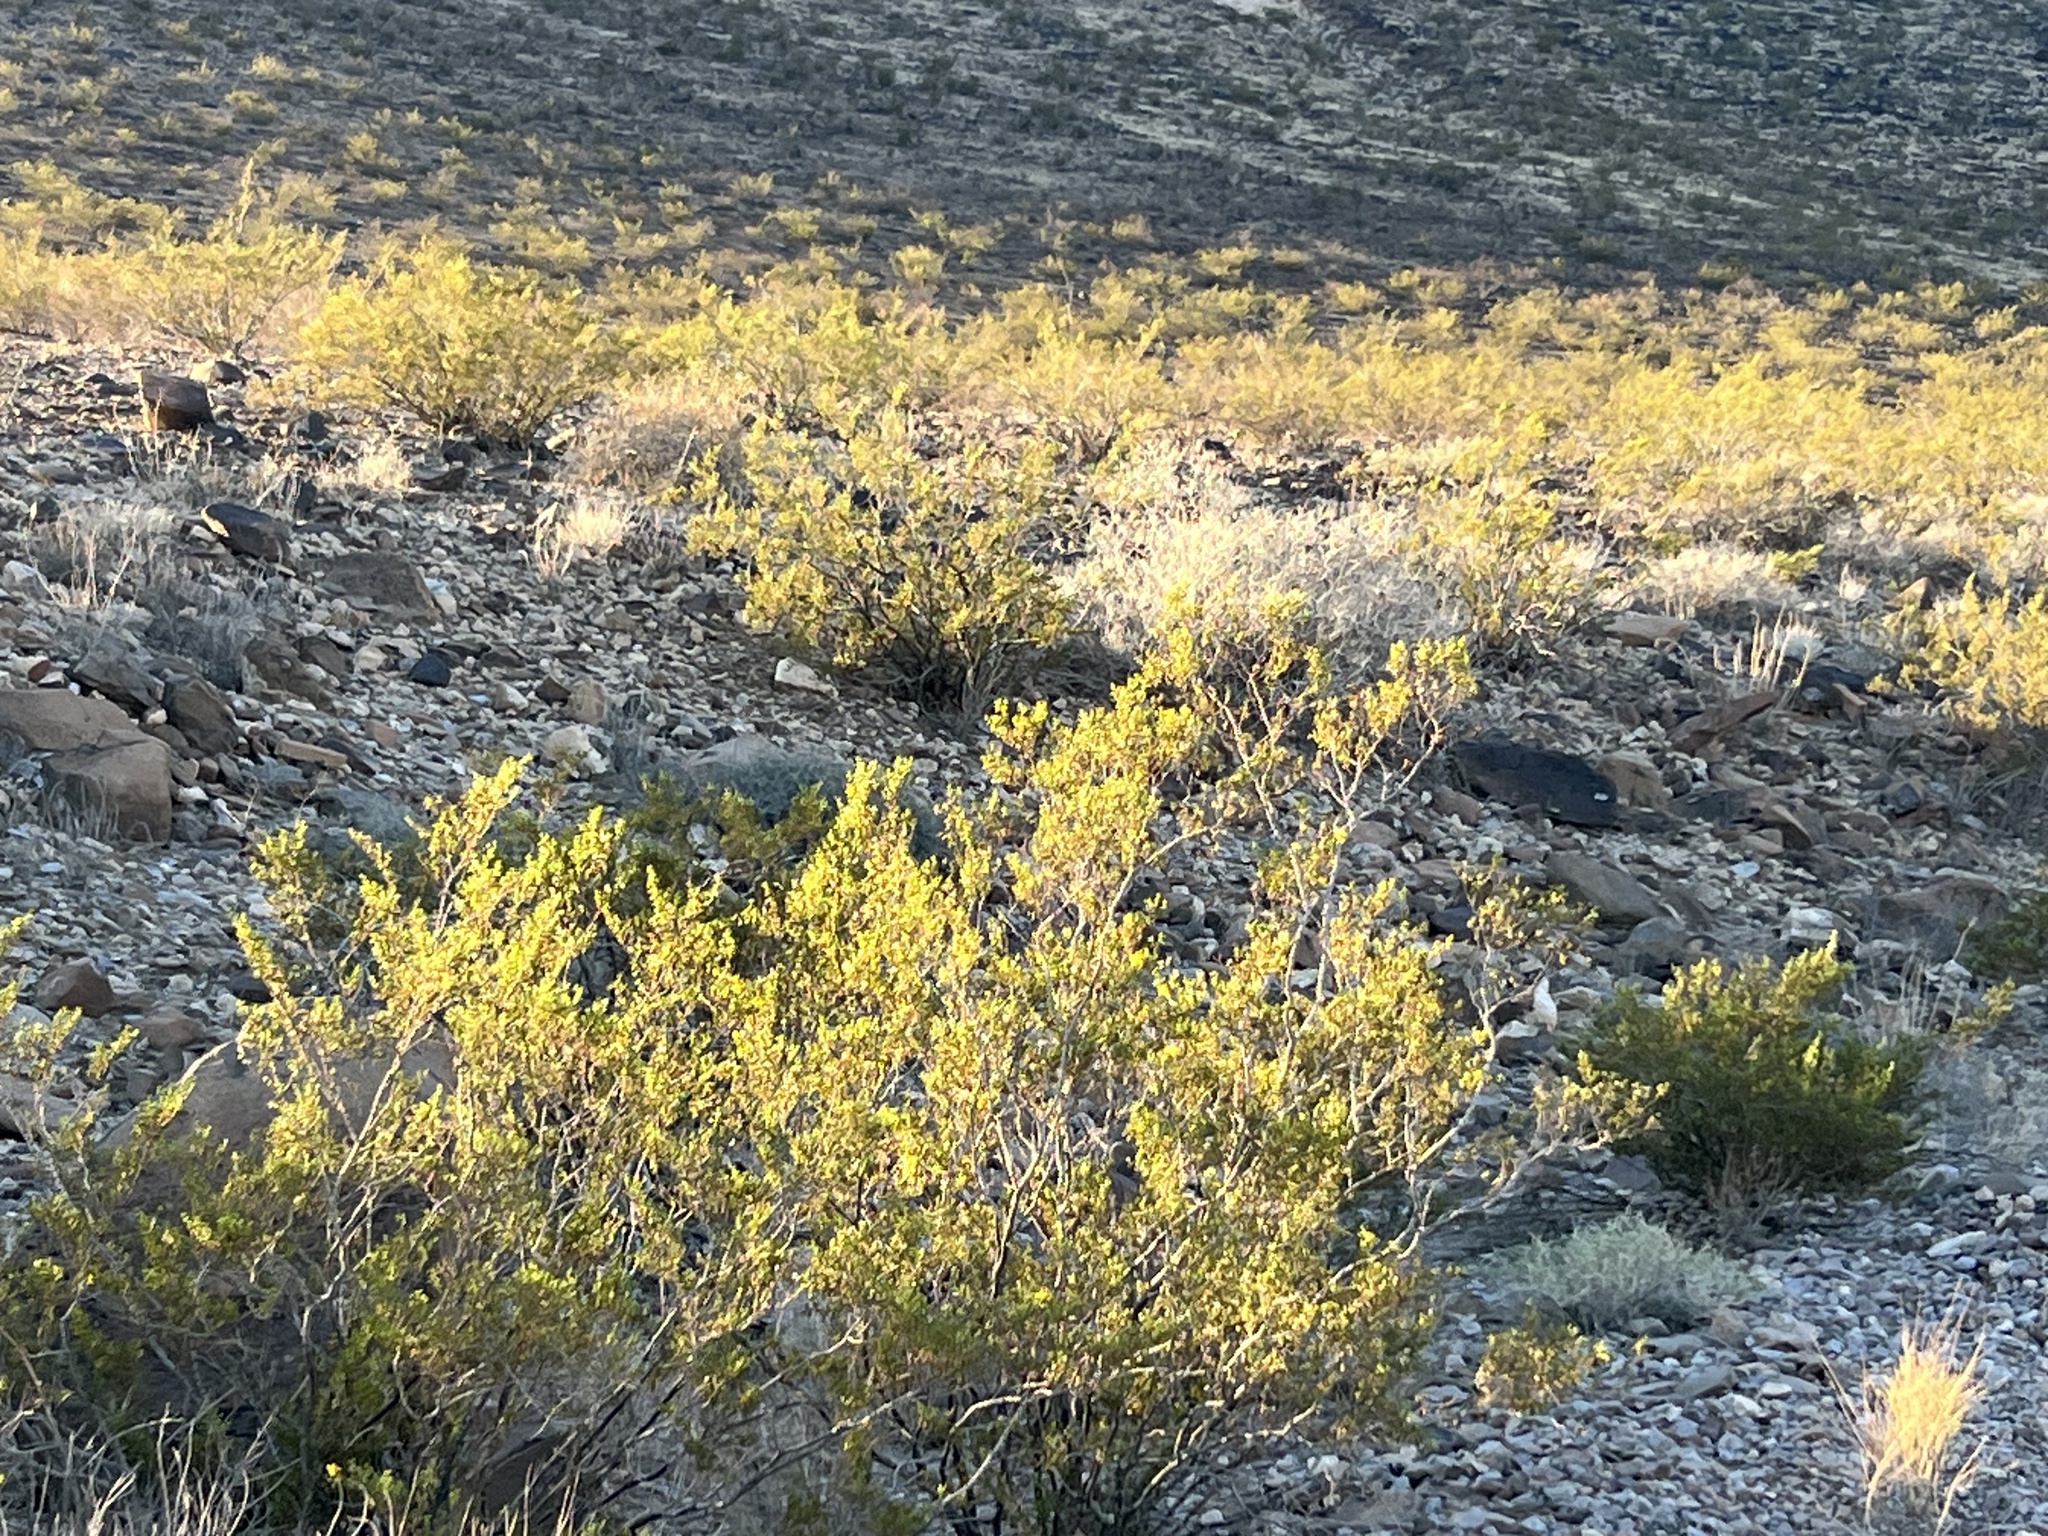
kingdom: Plantae
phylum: Tracheophyta
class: Magnoliopsida
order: Zygophyllales
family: Zygophyllaceae
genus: Larrea
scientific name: Larrea tridentata
